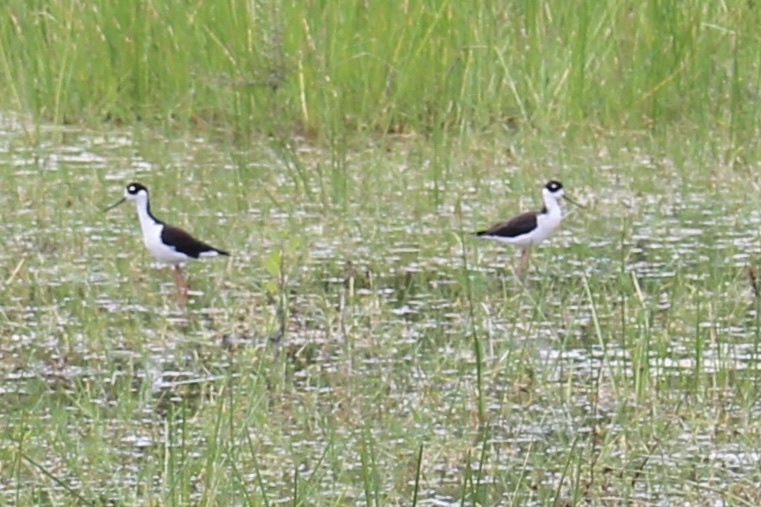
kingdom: Animalia
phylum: Chordata
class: Aves
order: Charadriiformes
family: Recurvirostridae
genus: Himantopus
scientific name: Himantopus mexicanus
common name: Black-necked stilt
